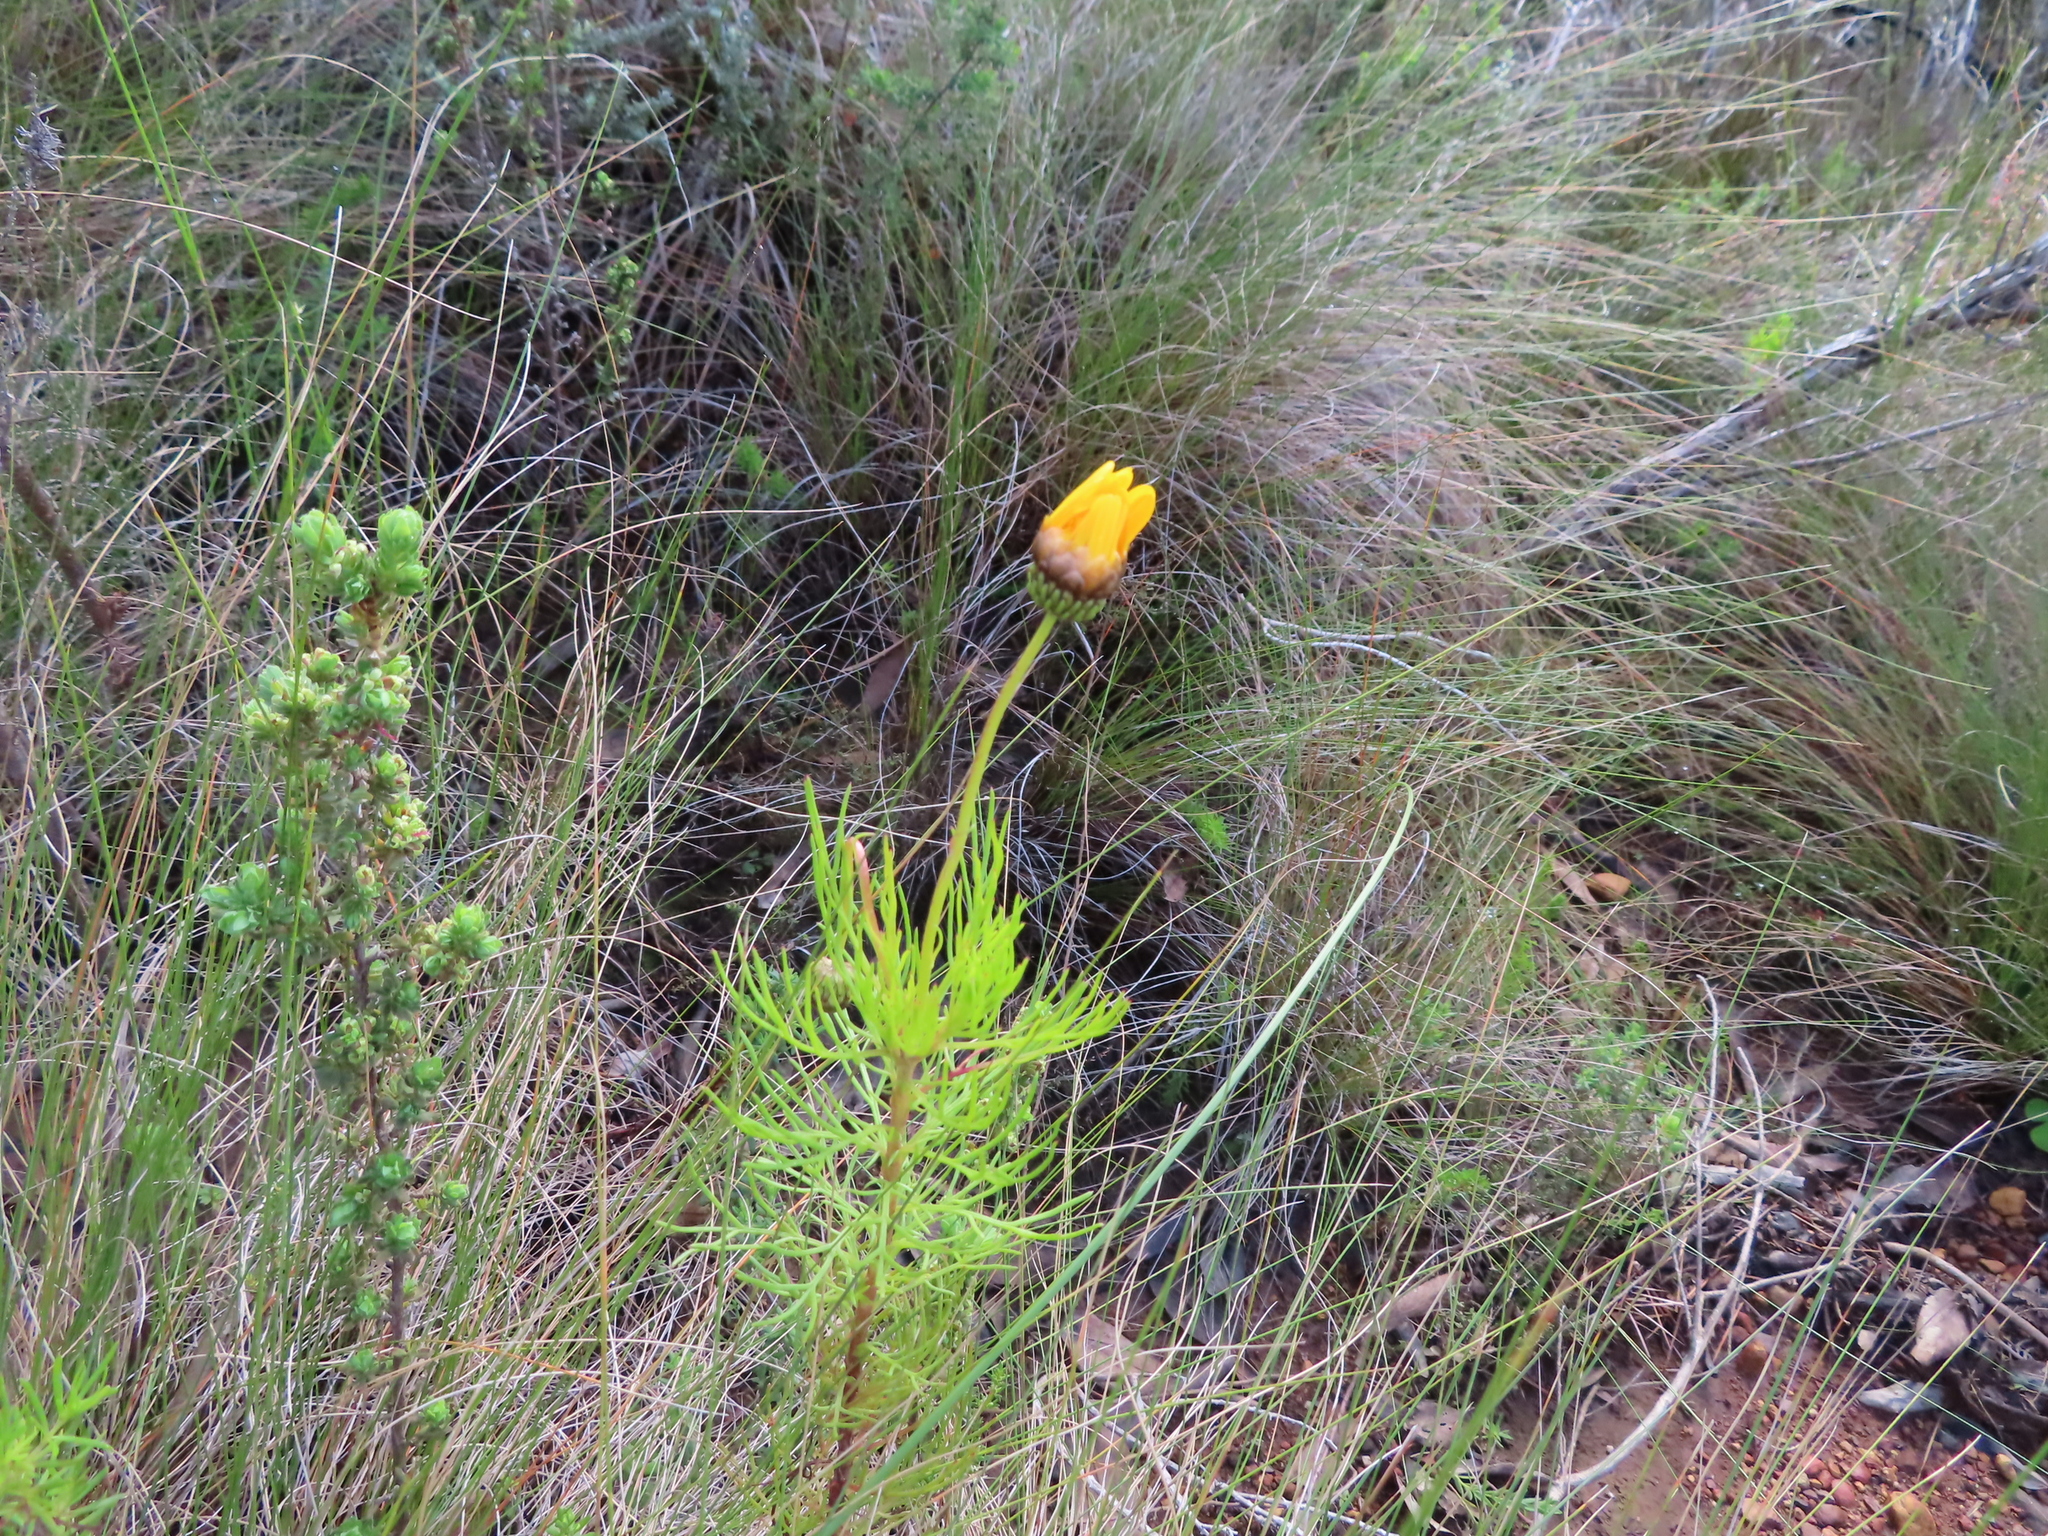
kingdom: Plantae
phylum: Tracheophyta
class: Magnoliopsida
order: Asterales
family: Asteraceae
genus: Ursinia
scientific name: Ursinia paleacea
